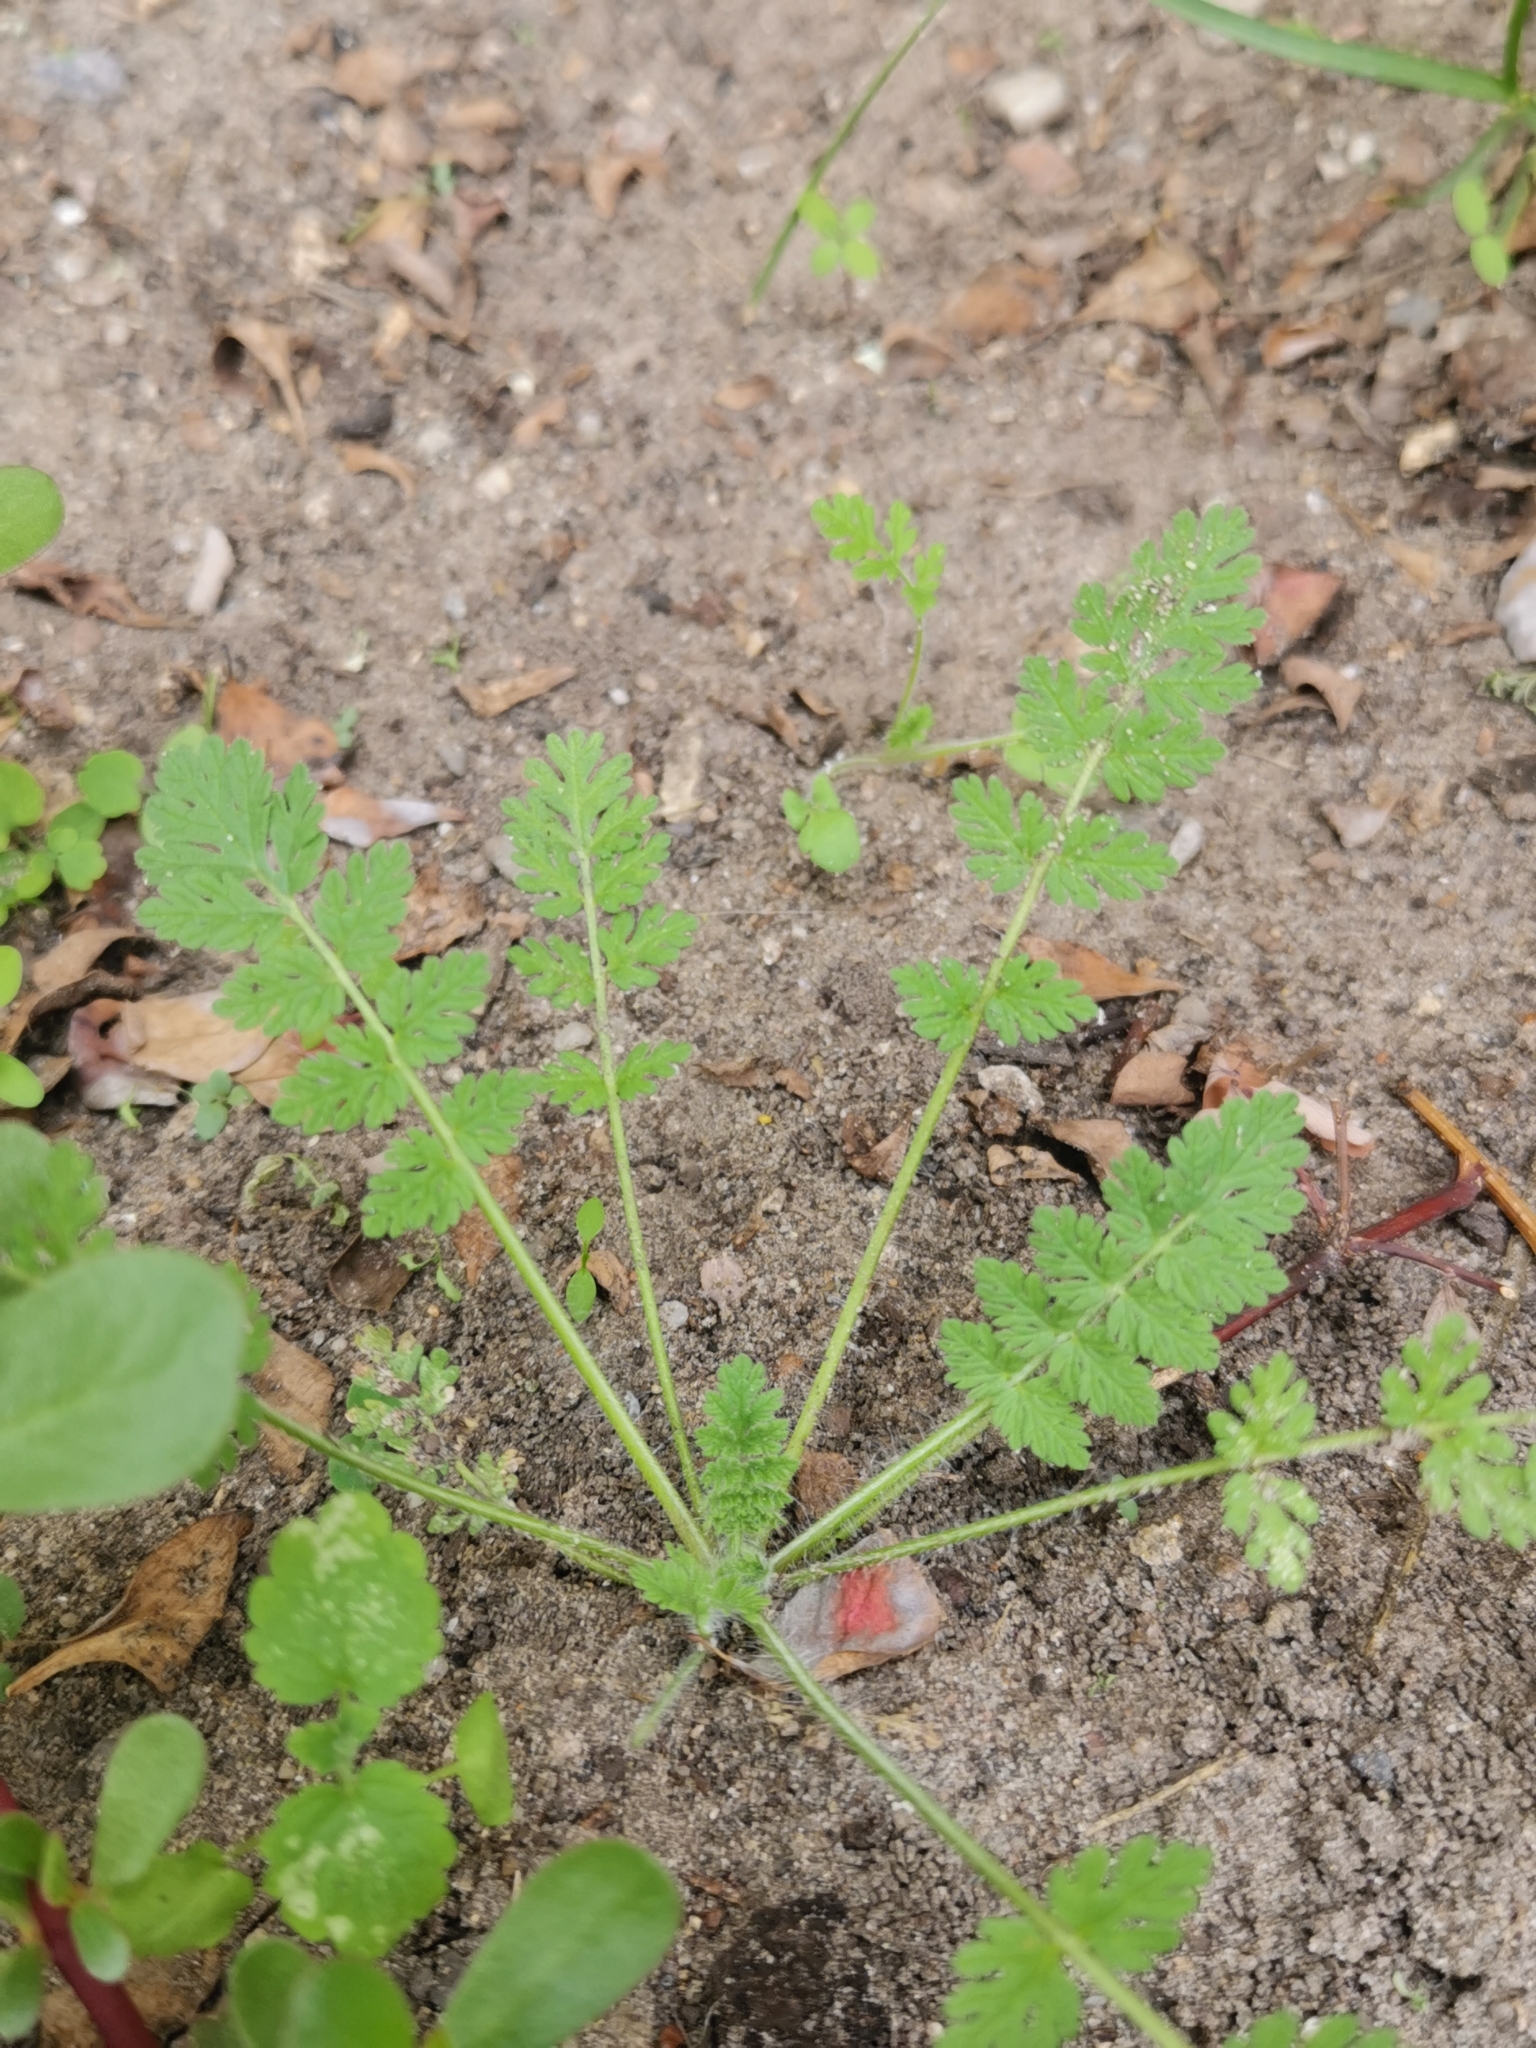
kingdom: Plantae
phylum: Tracheophyta
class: Magnoliopsida
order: Geraniales
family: Geraniaceae
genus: Erodium
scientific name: Erodium cicutarium
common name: Common stork's-bill
